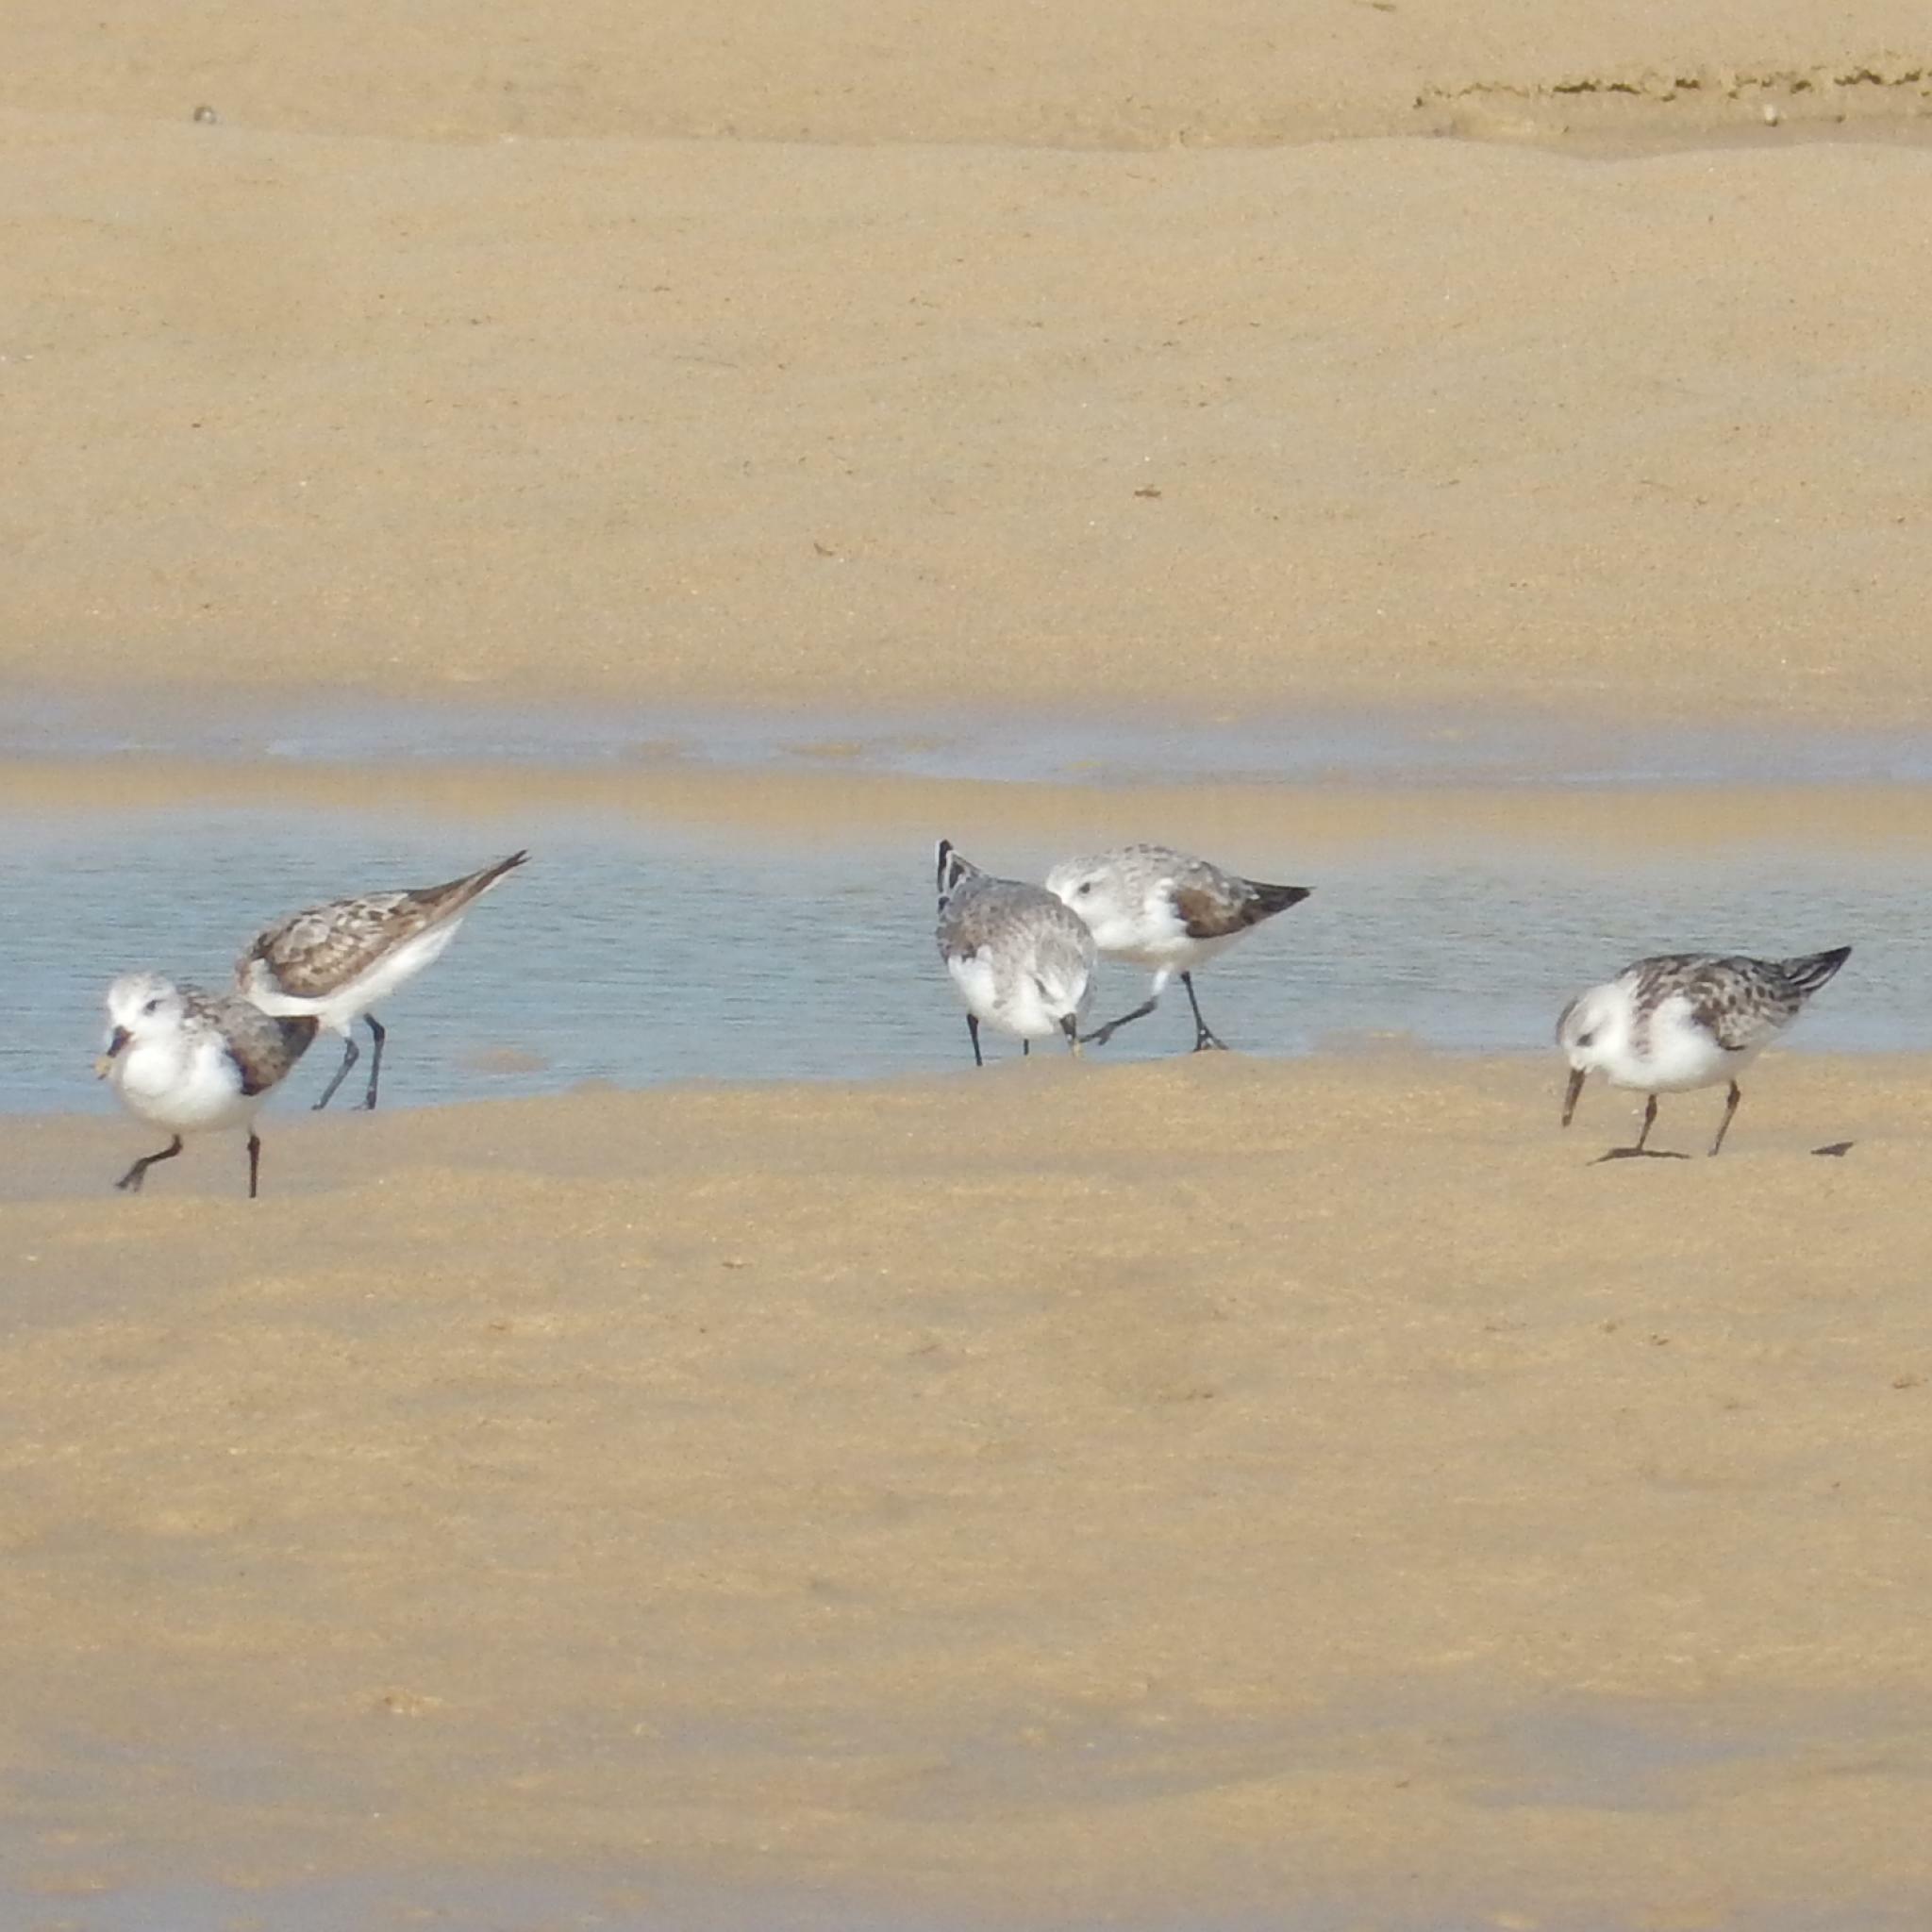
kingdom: Animalia
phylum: Chordata
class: Aves
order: Charadriiformes
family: Scolopacidae
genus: Calidris
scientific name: Calidris alba
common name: Sanderling
